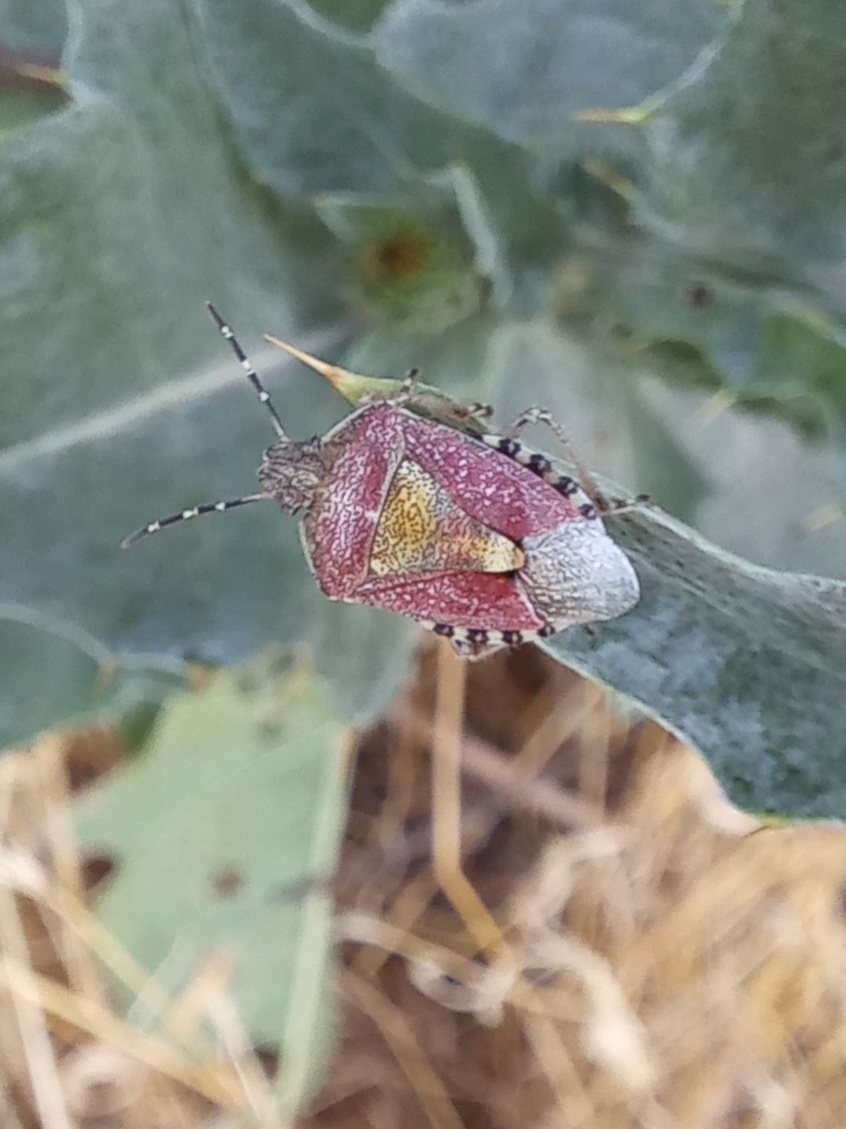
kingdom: Animalia
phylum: Arthropoda
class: Insecta
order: Hemiptera
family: Pentatomidae
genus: Dolycoris
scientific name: Dolycoris baccarum
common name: Sloe bug
